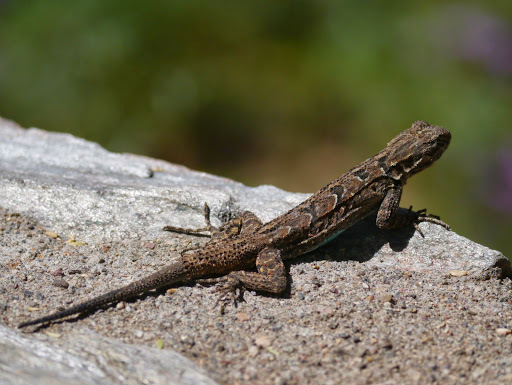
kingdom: Animalia
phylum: Chordata
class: Squamata
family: Phrynosomatidae
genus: Urosaurus
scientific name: Urosaurus ornatus
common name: Ornate tree lizard
